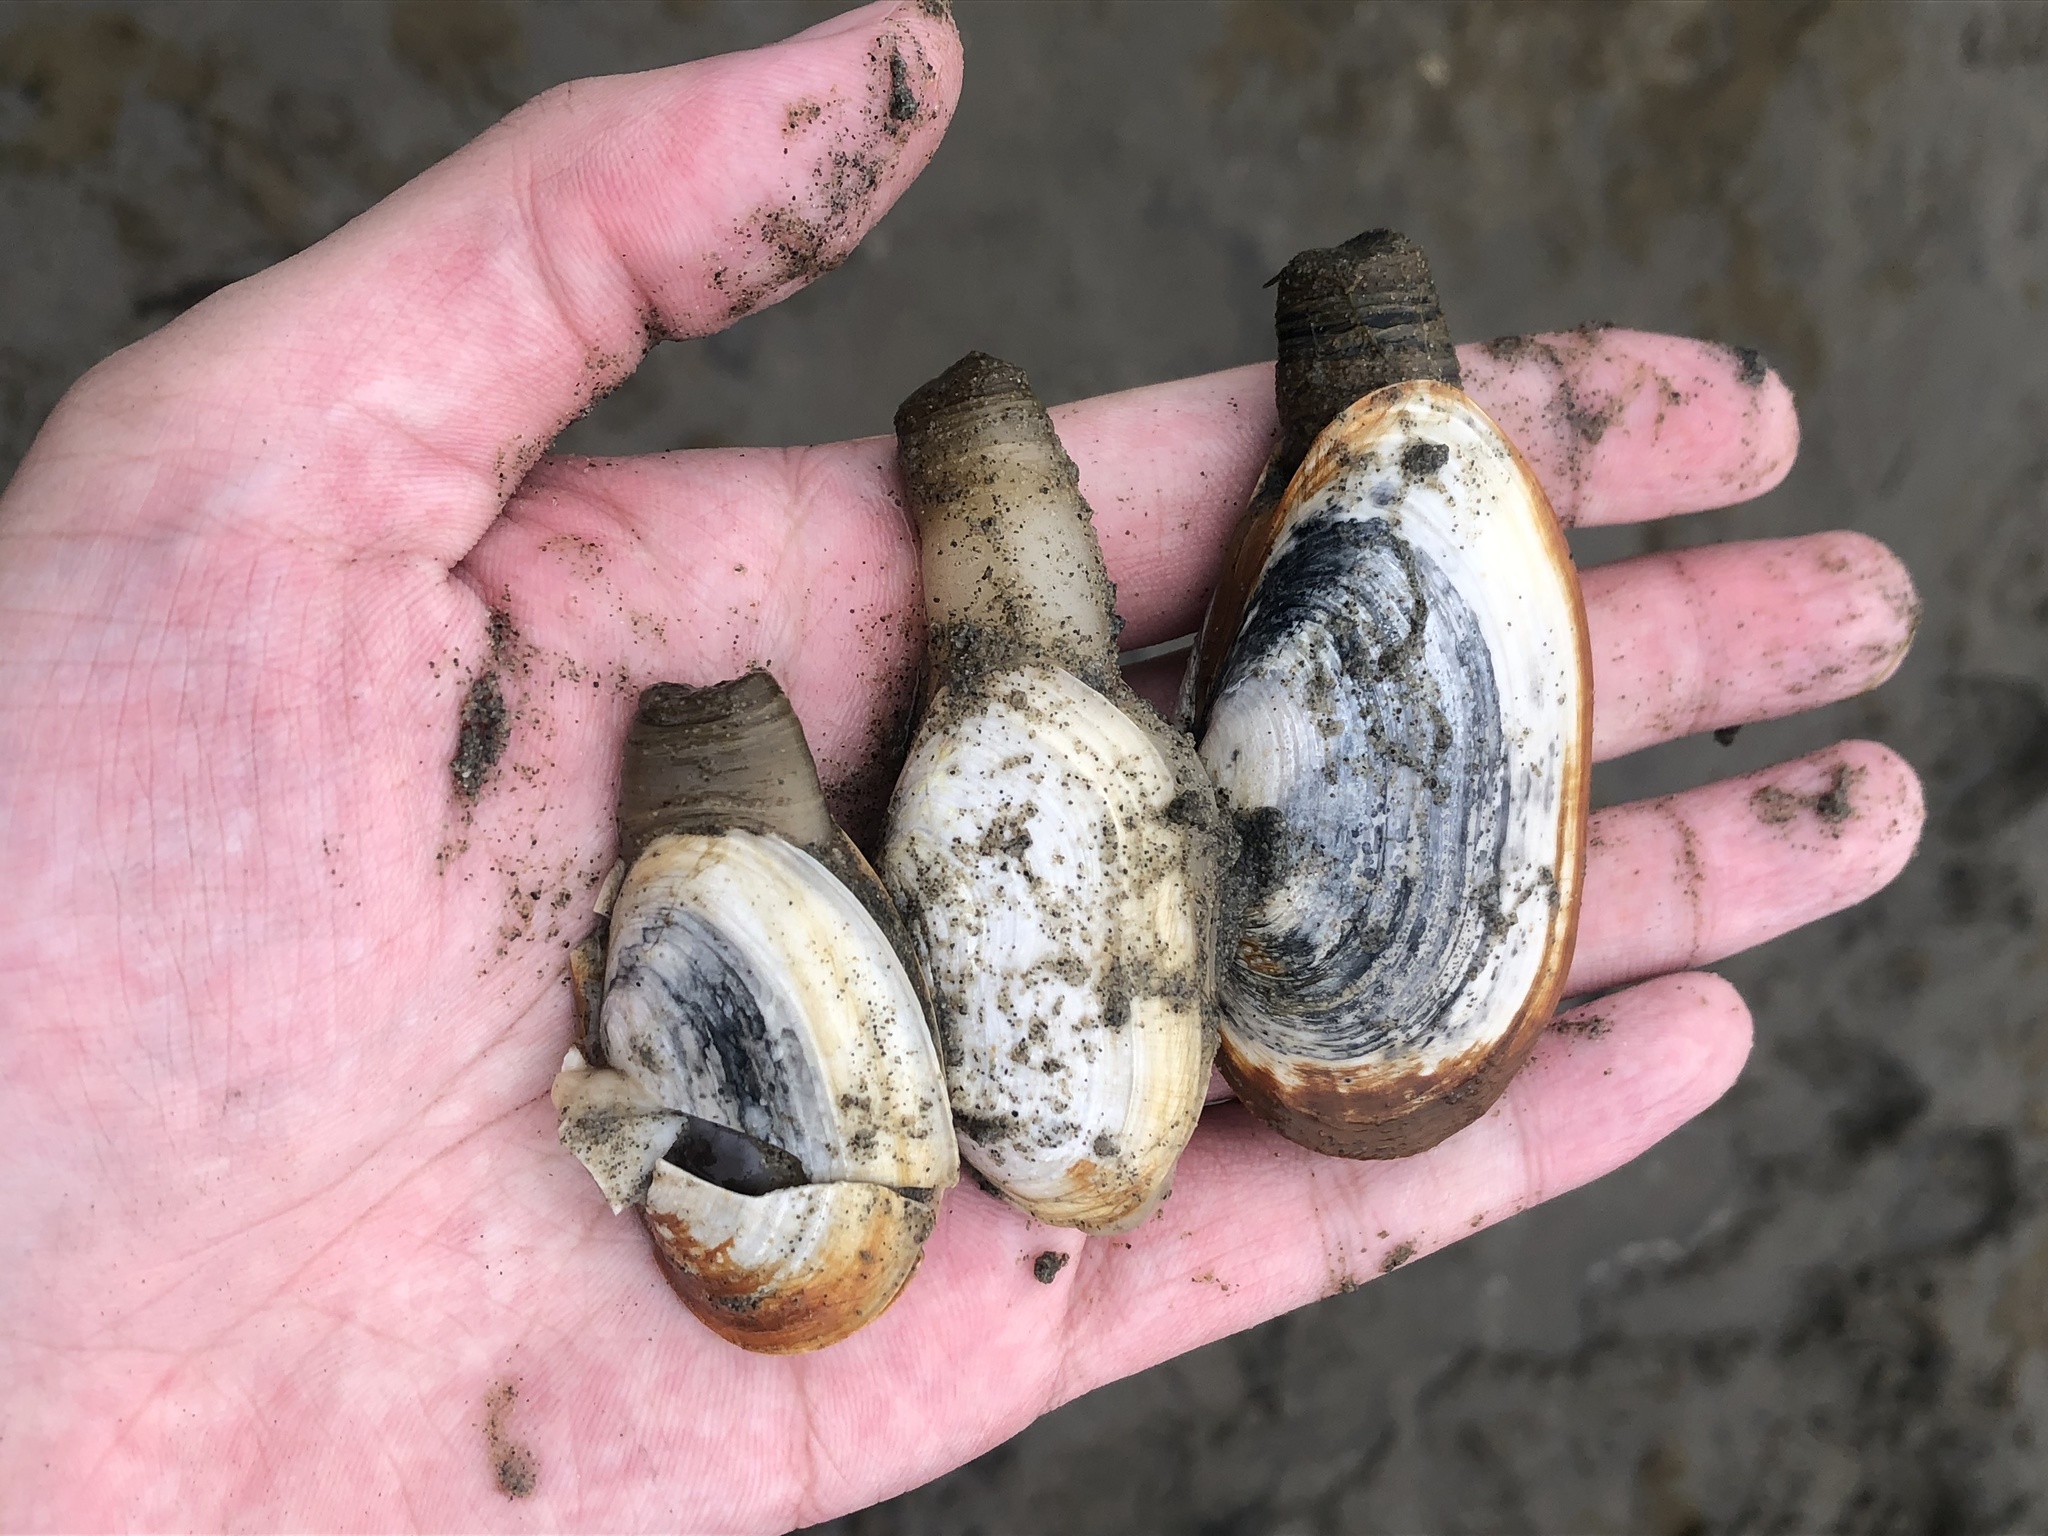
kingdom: Animalia
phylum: Mollusca
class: Bivalvia
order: Myida
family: Myidae
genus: Mya
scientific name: Mya arenaria
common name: Soft-shelled clam
